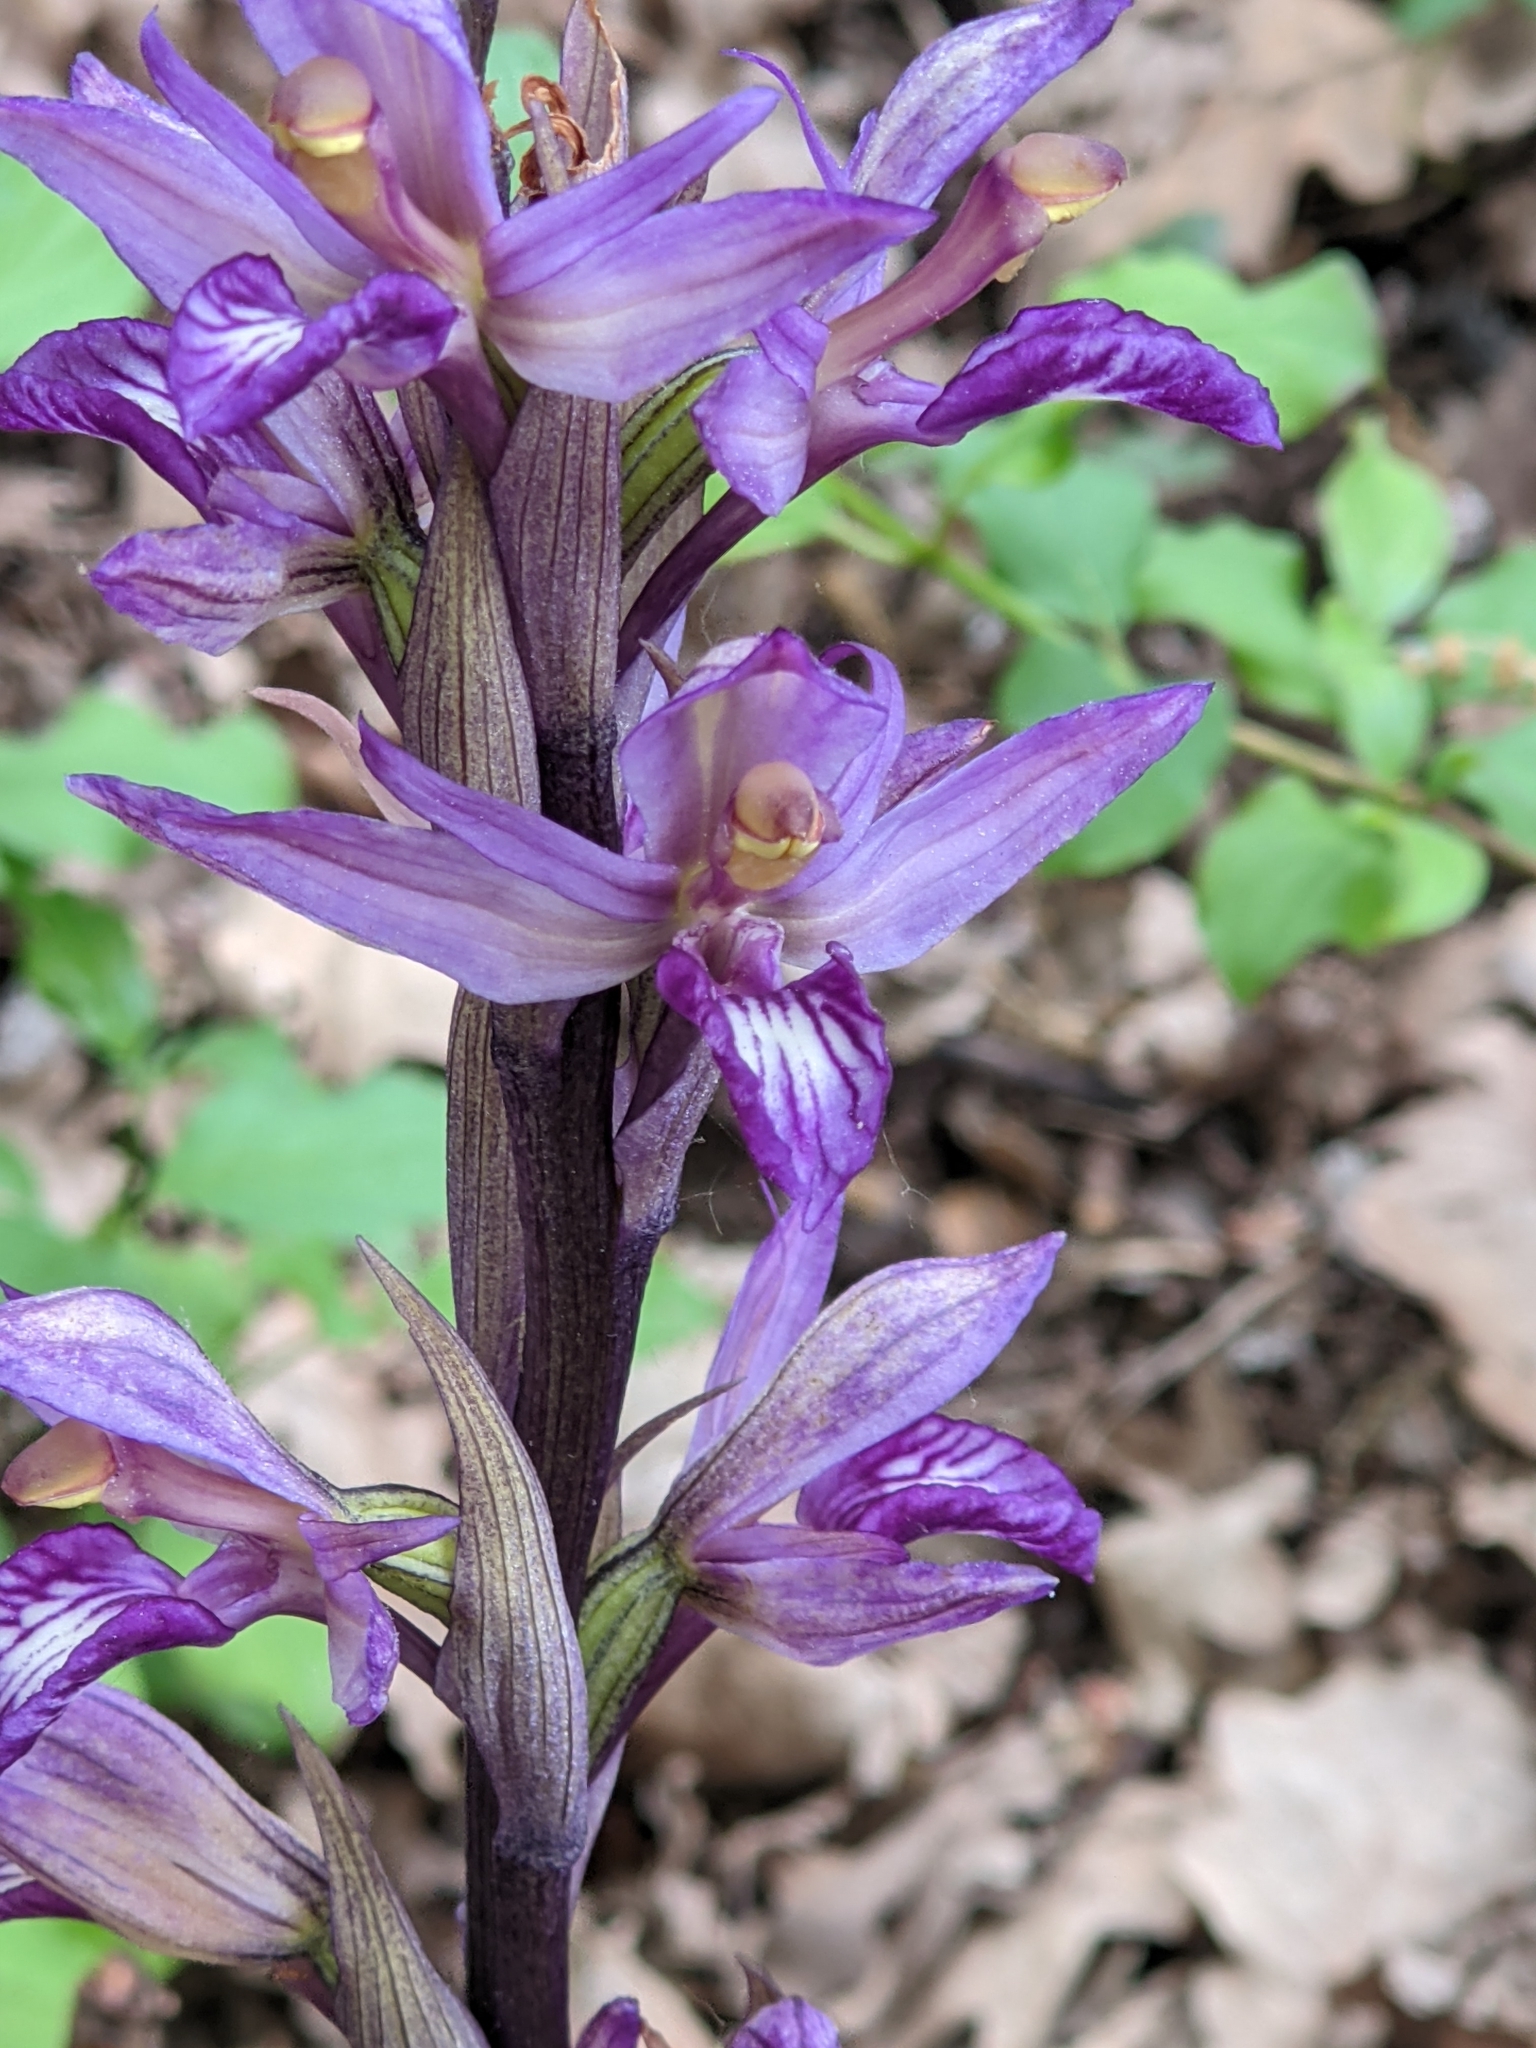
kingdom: Plantae
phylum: Tracheophyta
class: Liliopsida
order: Asparagales
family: Orchidaceae
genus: Limodorum
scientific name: Limodorum abortivum
